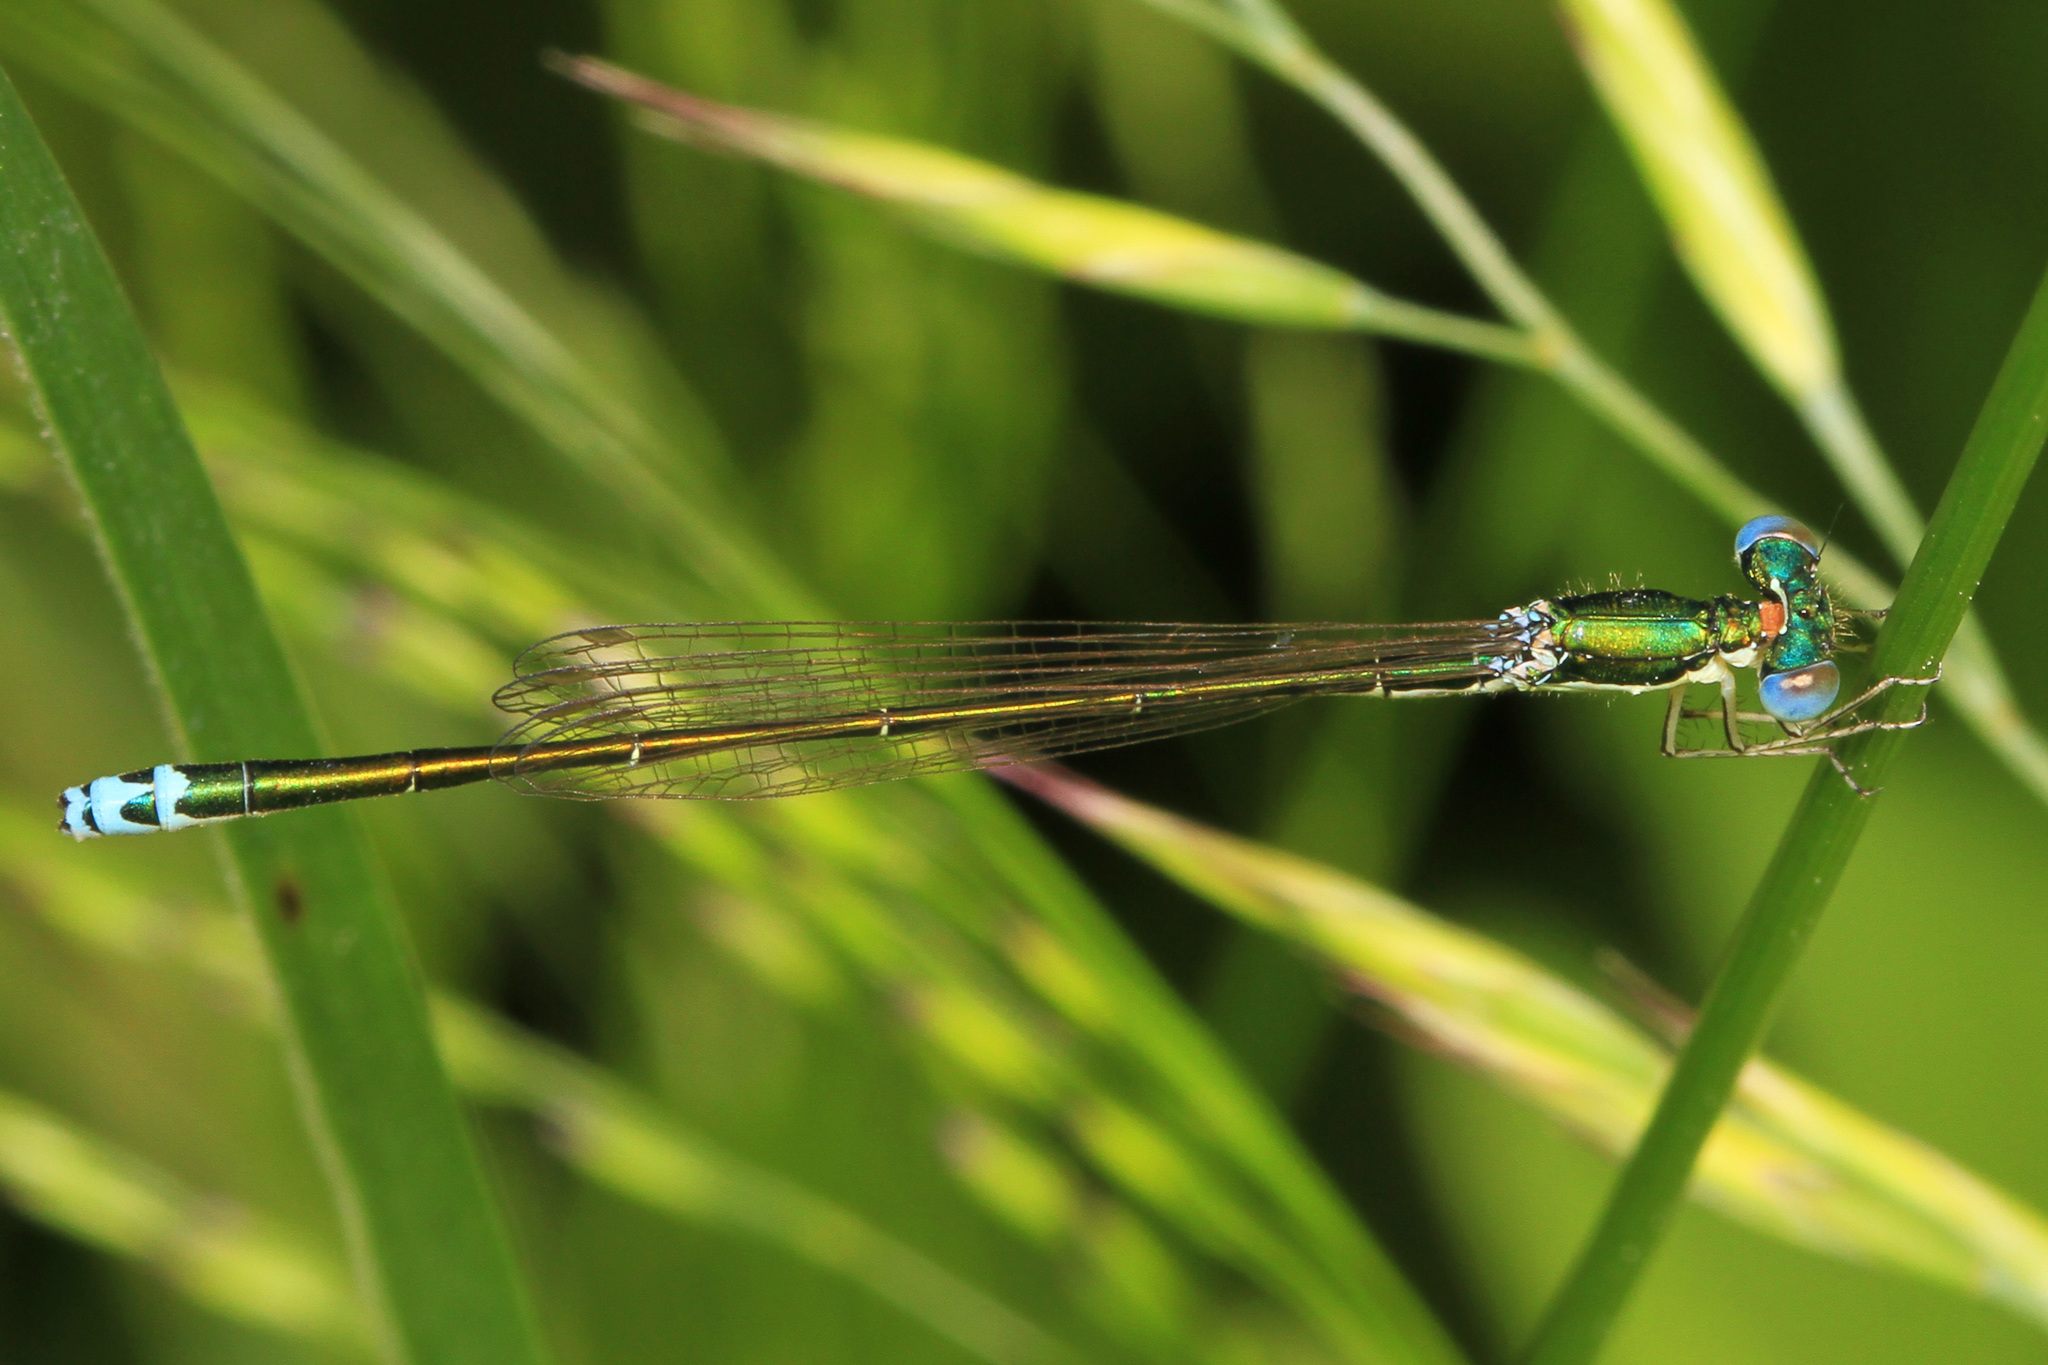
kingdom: Animalia
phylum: Arthropoda
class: Insecta
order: Odonata
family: Coenagrionidae
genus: Nehalennia
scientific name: Nehalennia irene
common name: Sedge sprite
